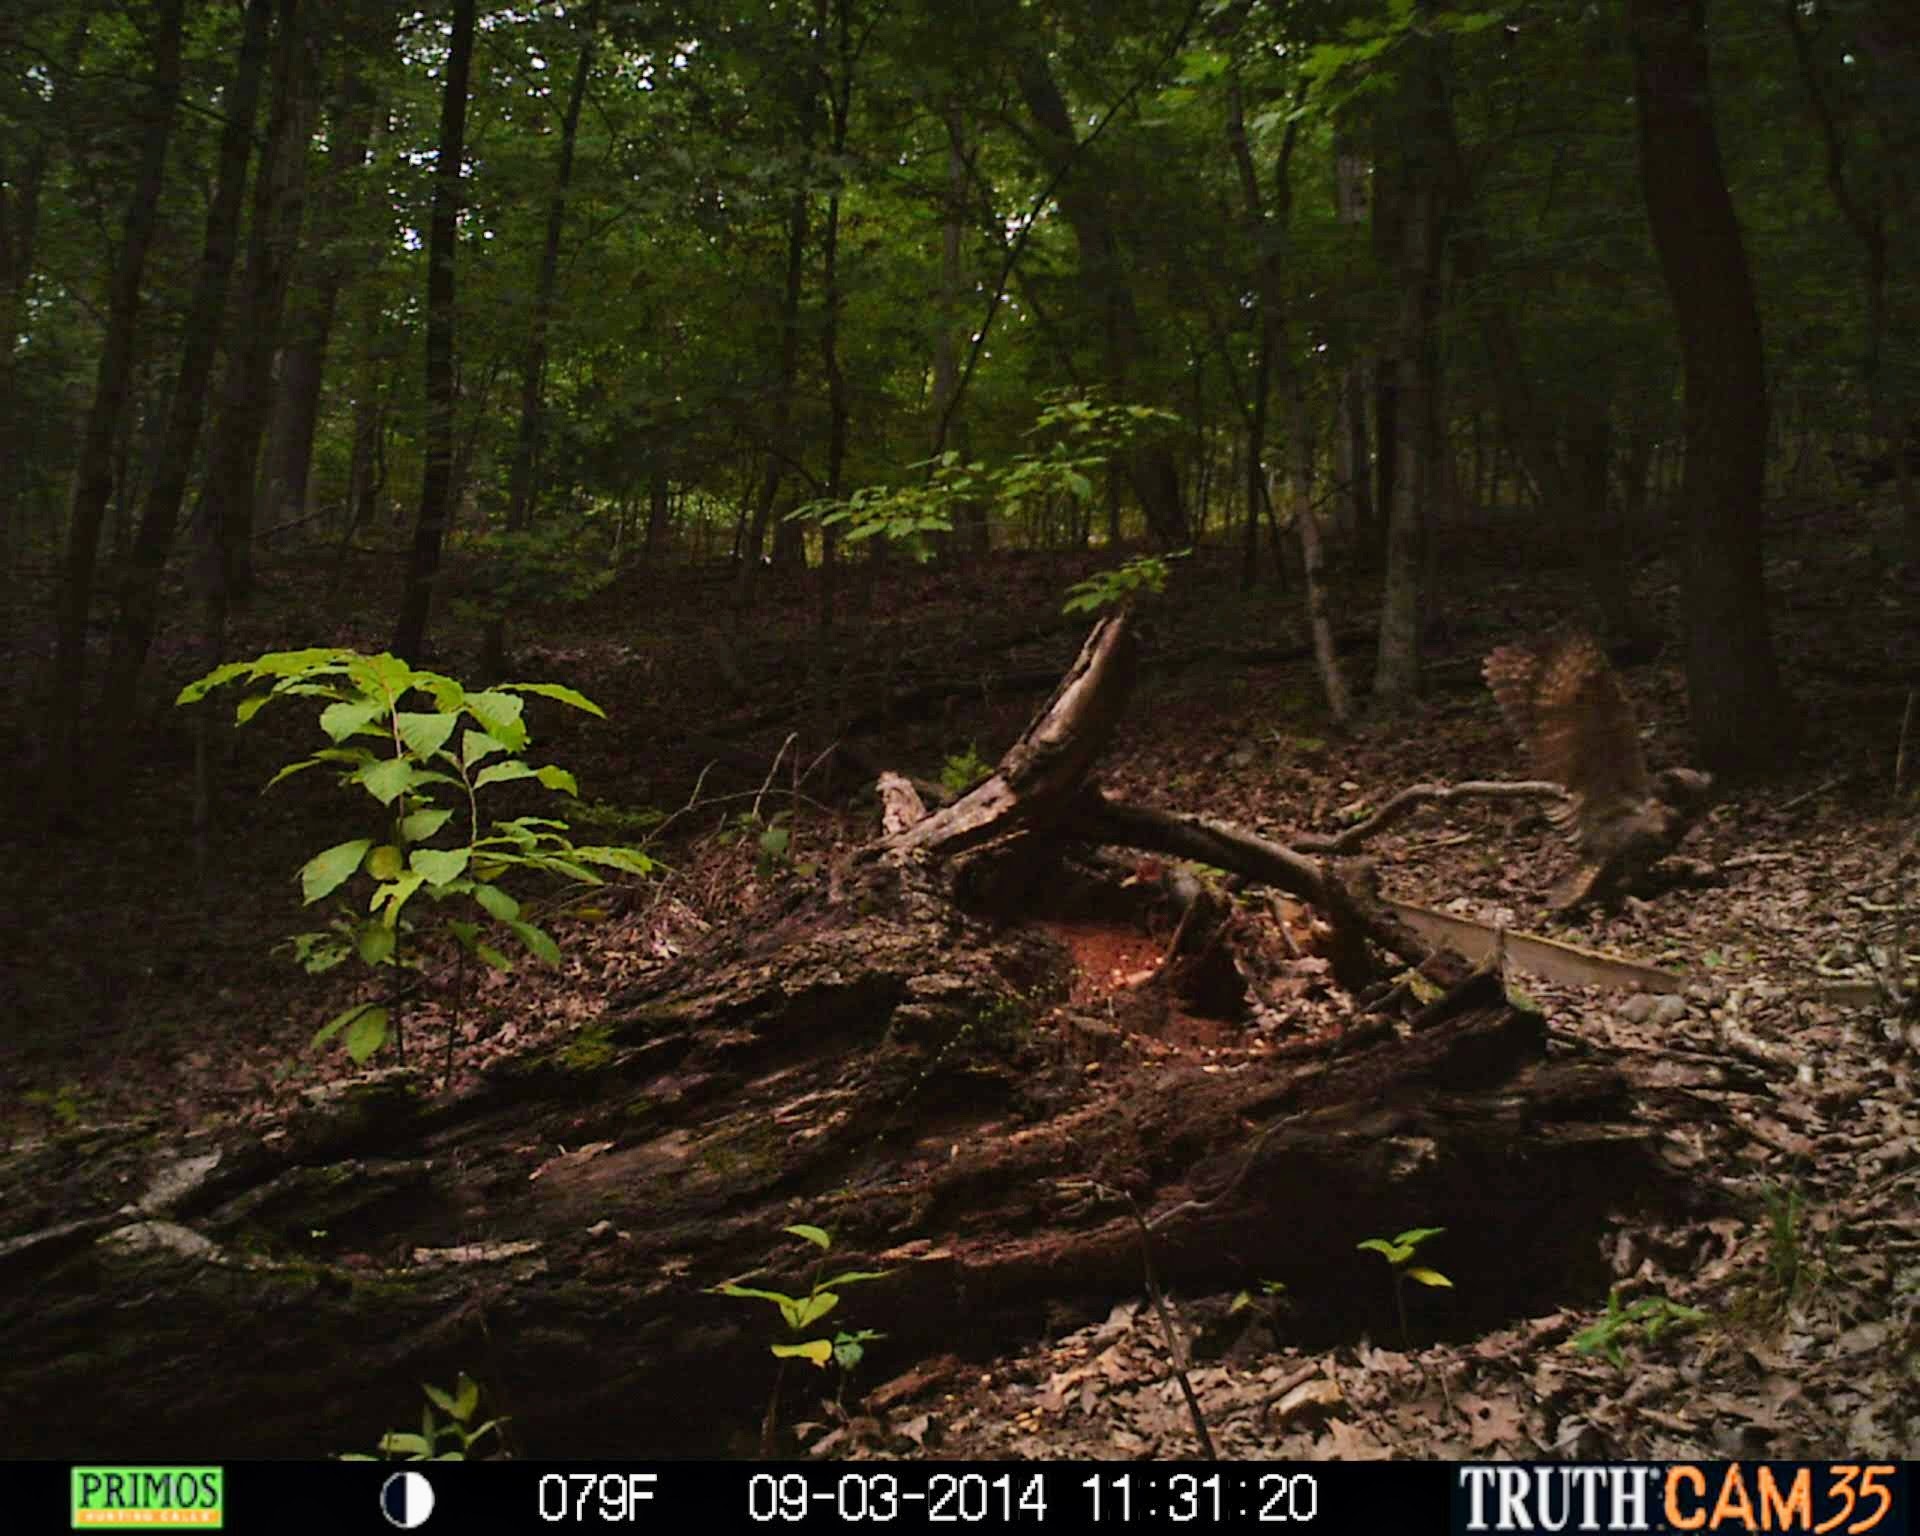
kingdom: Animalia
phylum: Chordata
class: Aves
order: Strigiformes
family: Strigidae
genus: Bubo
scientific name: Bubo virginianus
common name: Great horned owl
